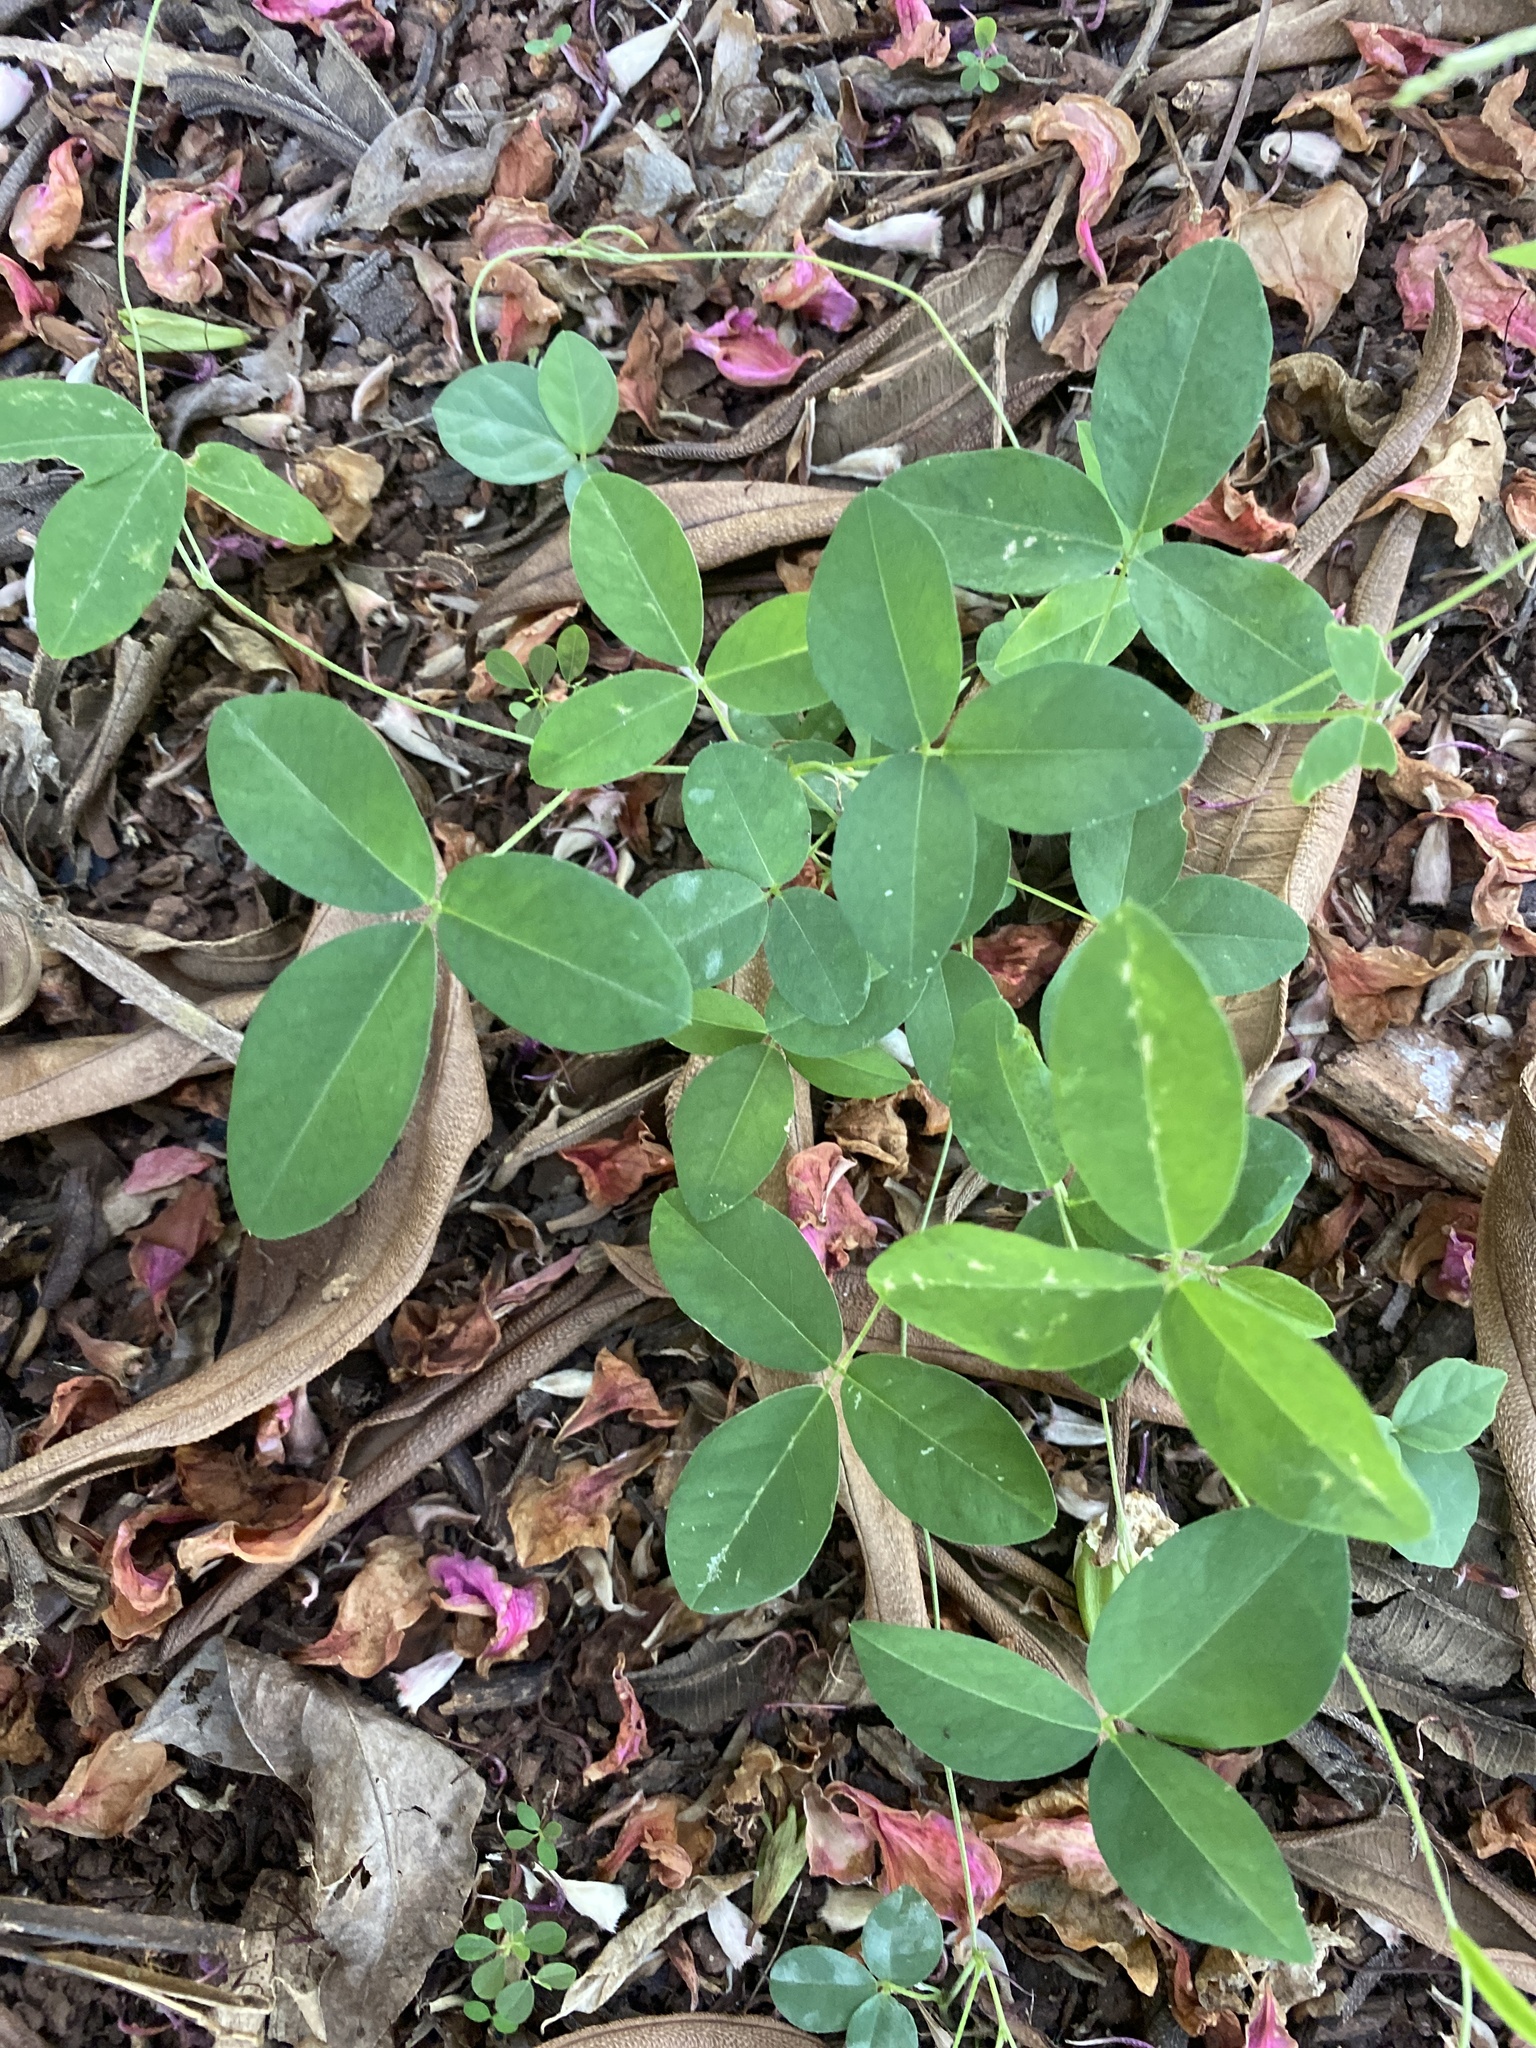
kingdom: Plantae
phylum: Tracheophyta
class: Magnoliopsida
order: Fabales
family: Fabaceae
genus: Dumasia
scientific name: Dumasia villosa
